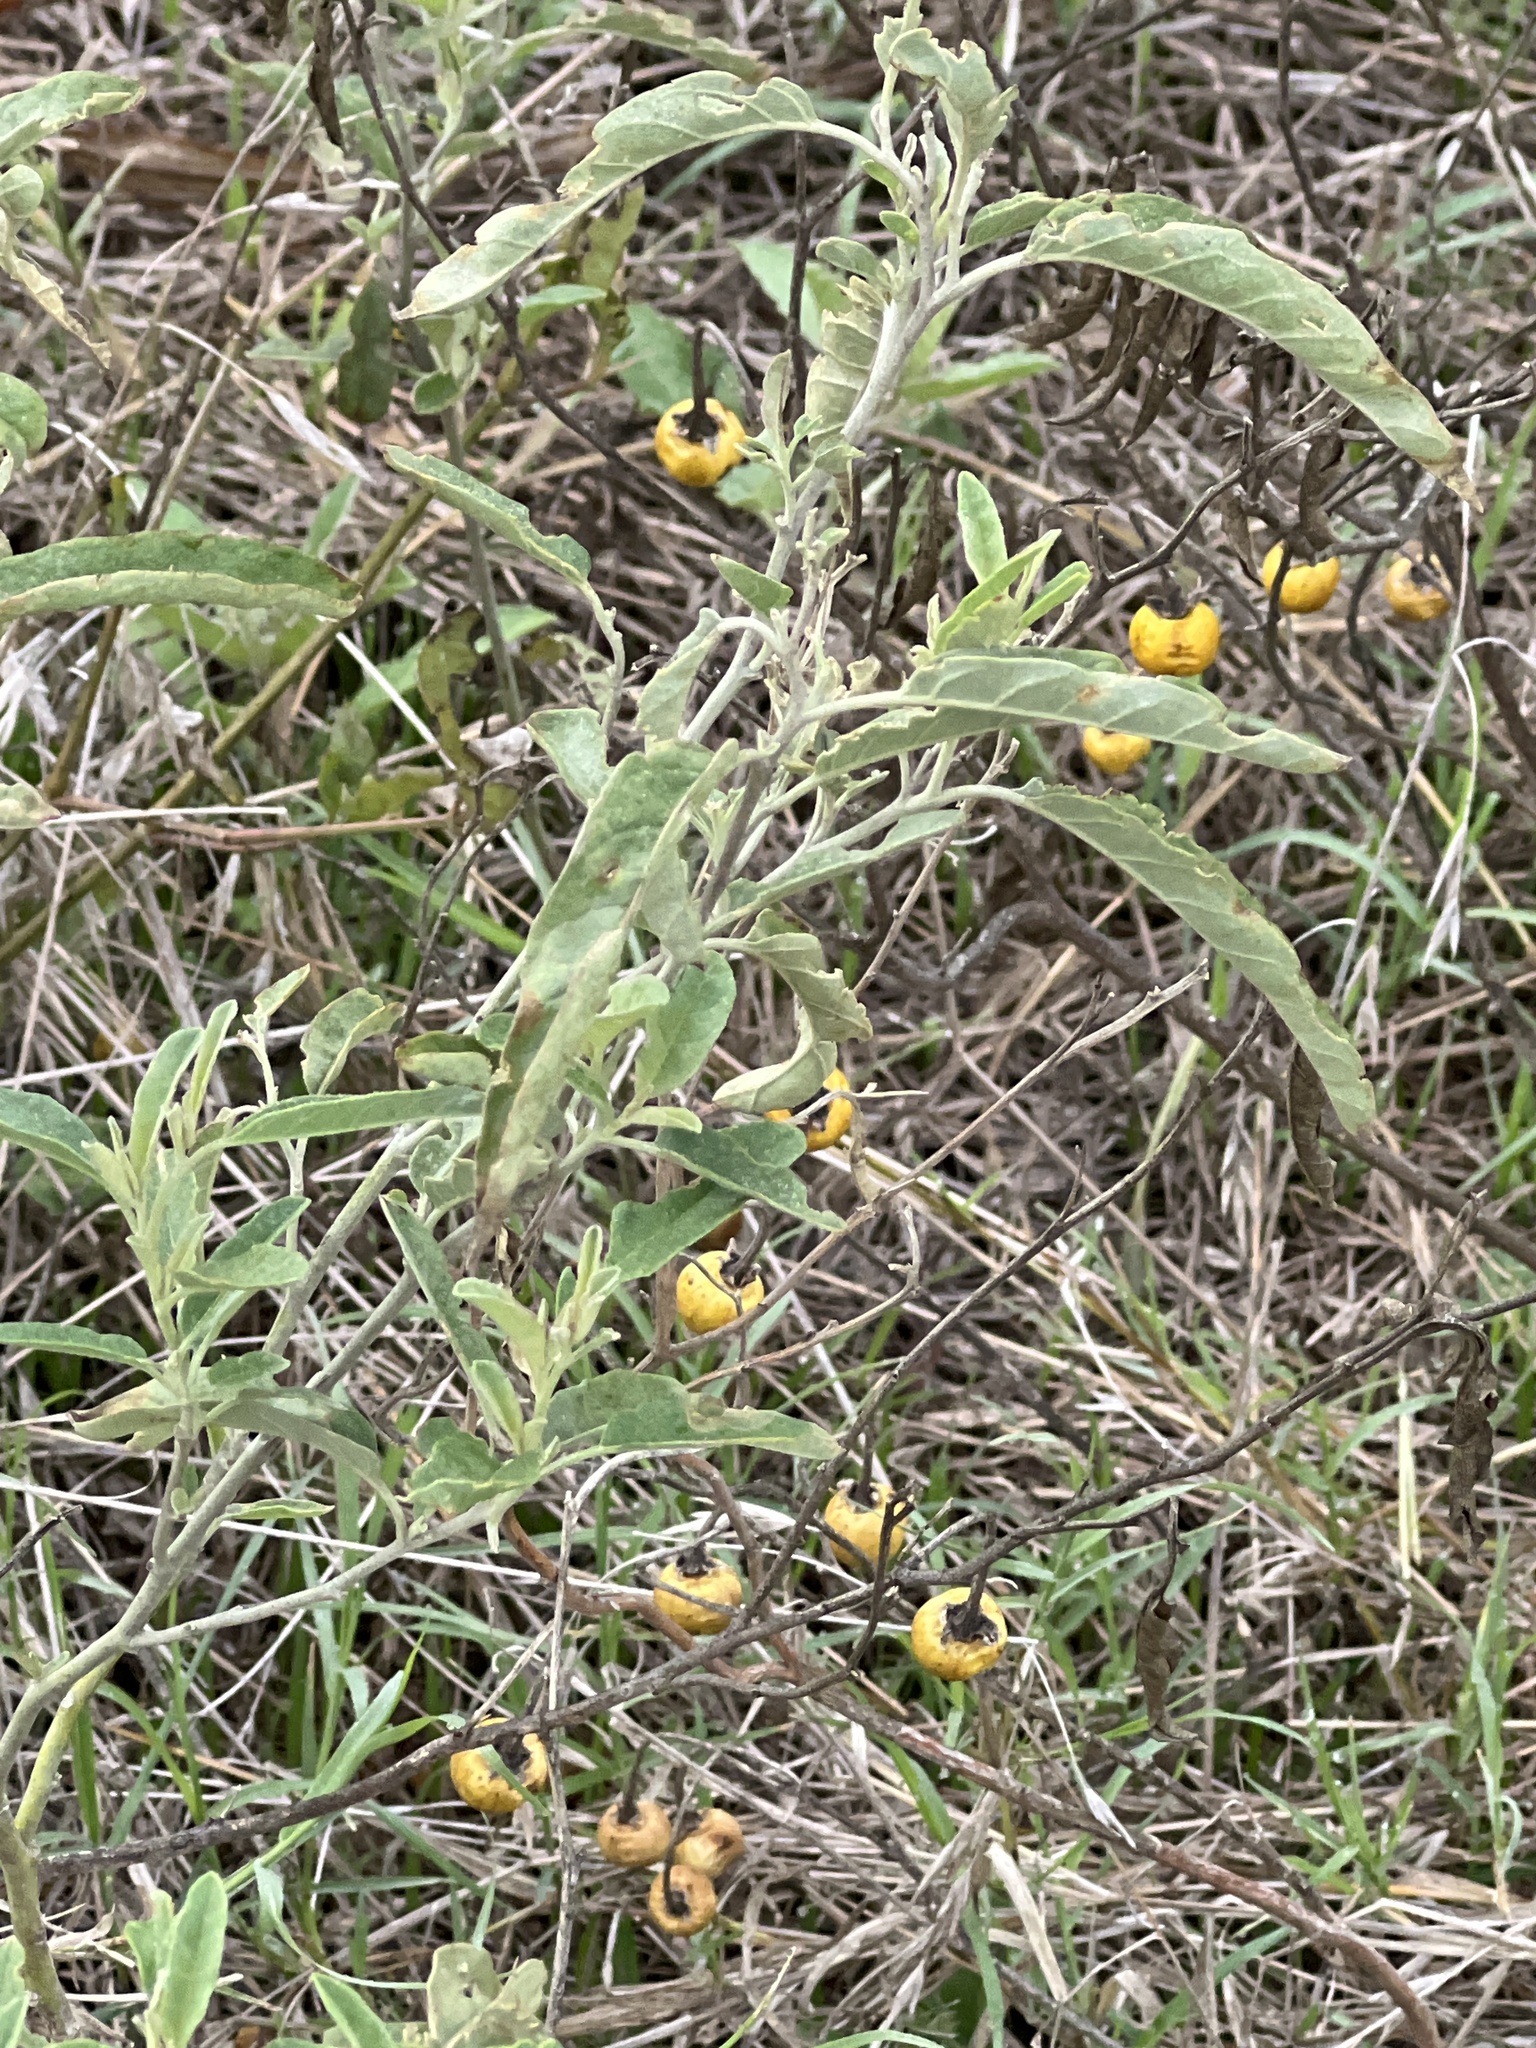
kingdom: Plantae
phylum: Tracheophyta
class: Magnoliopsida
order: Solanales
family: Solanaceae
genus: Solanum
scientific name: Solanum elaeagnifolium
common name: Silverleaf nightshade
